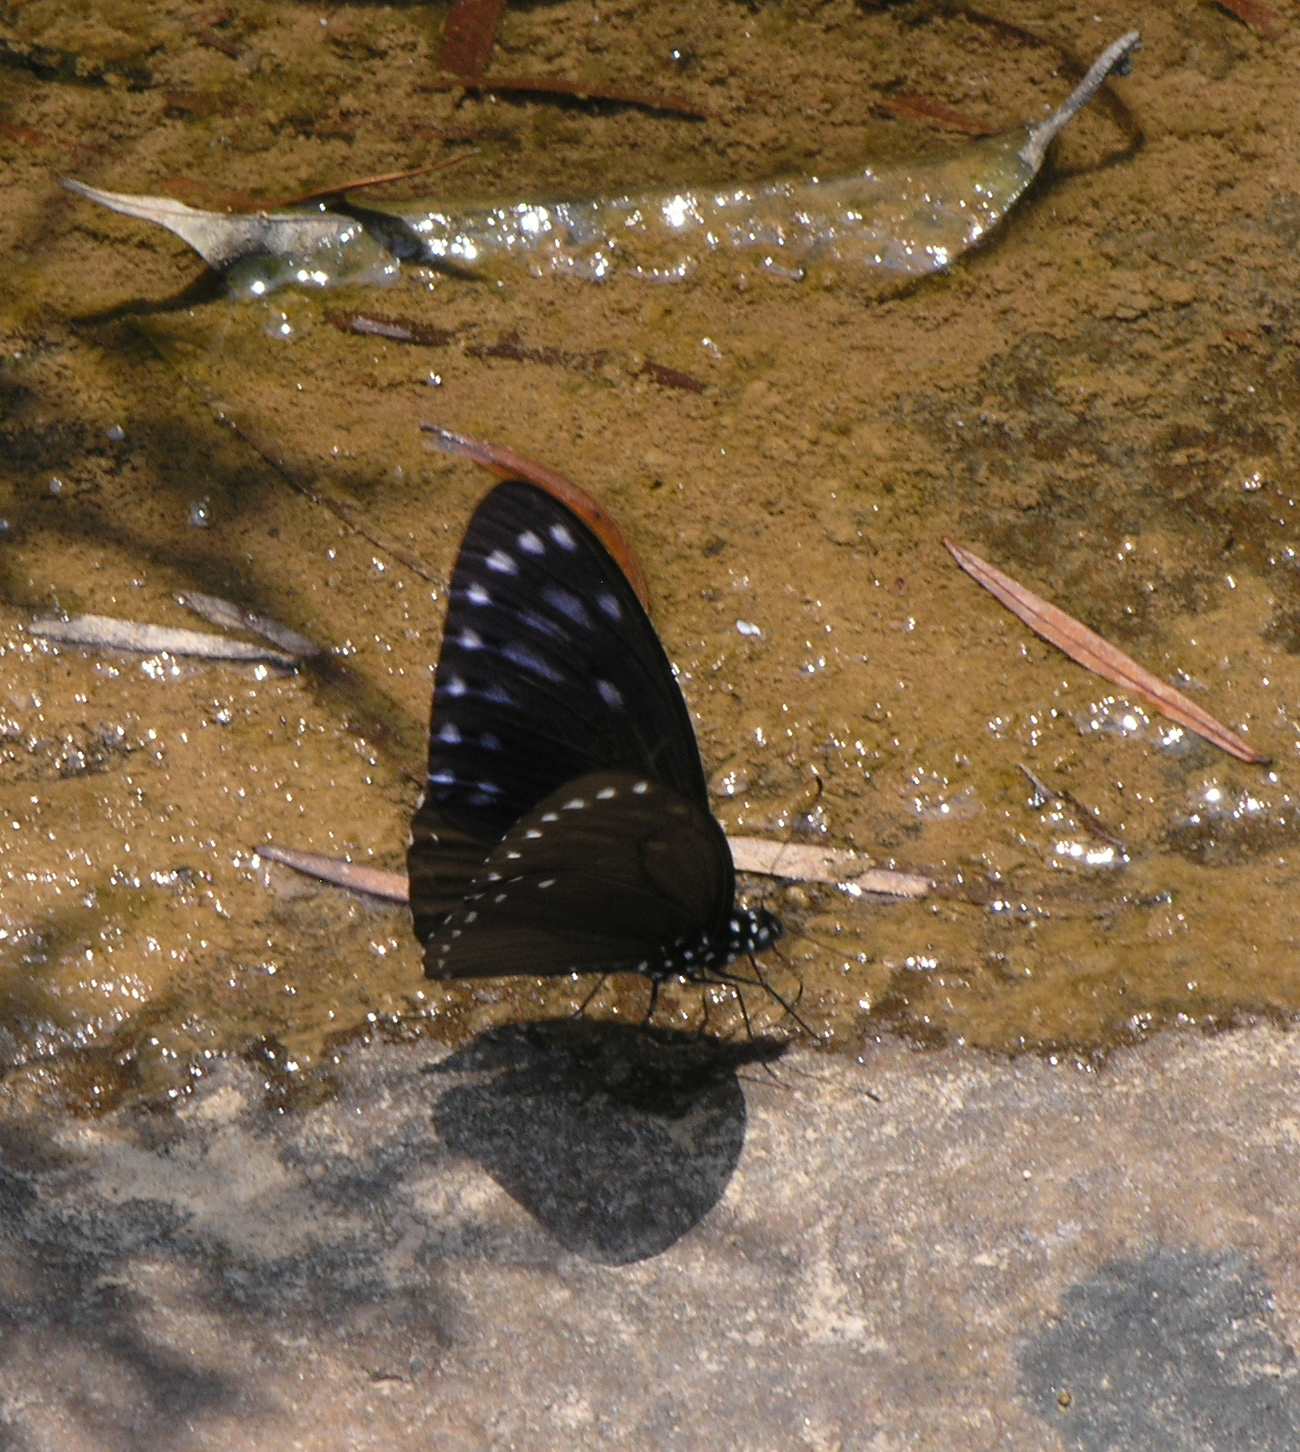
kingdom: Animalia
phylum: Arthropoda
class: Insecta
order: Lepidoptera
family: Papilionidae
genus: Papilio
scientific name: Papilio paradoxa
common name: Great blue mime swallowtail
